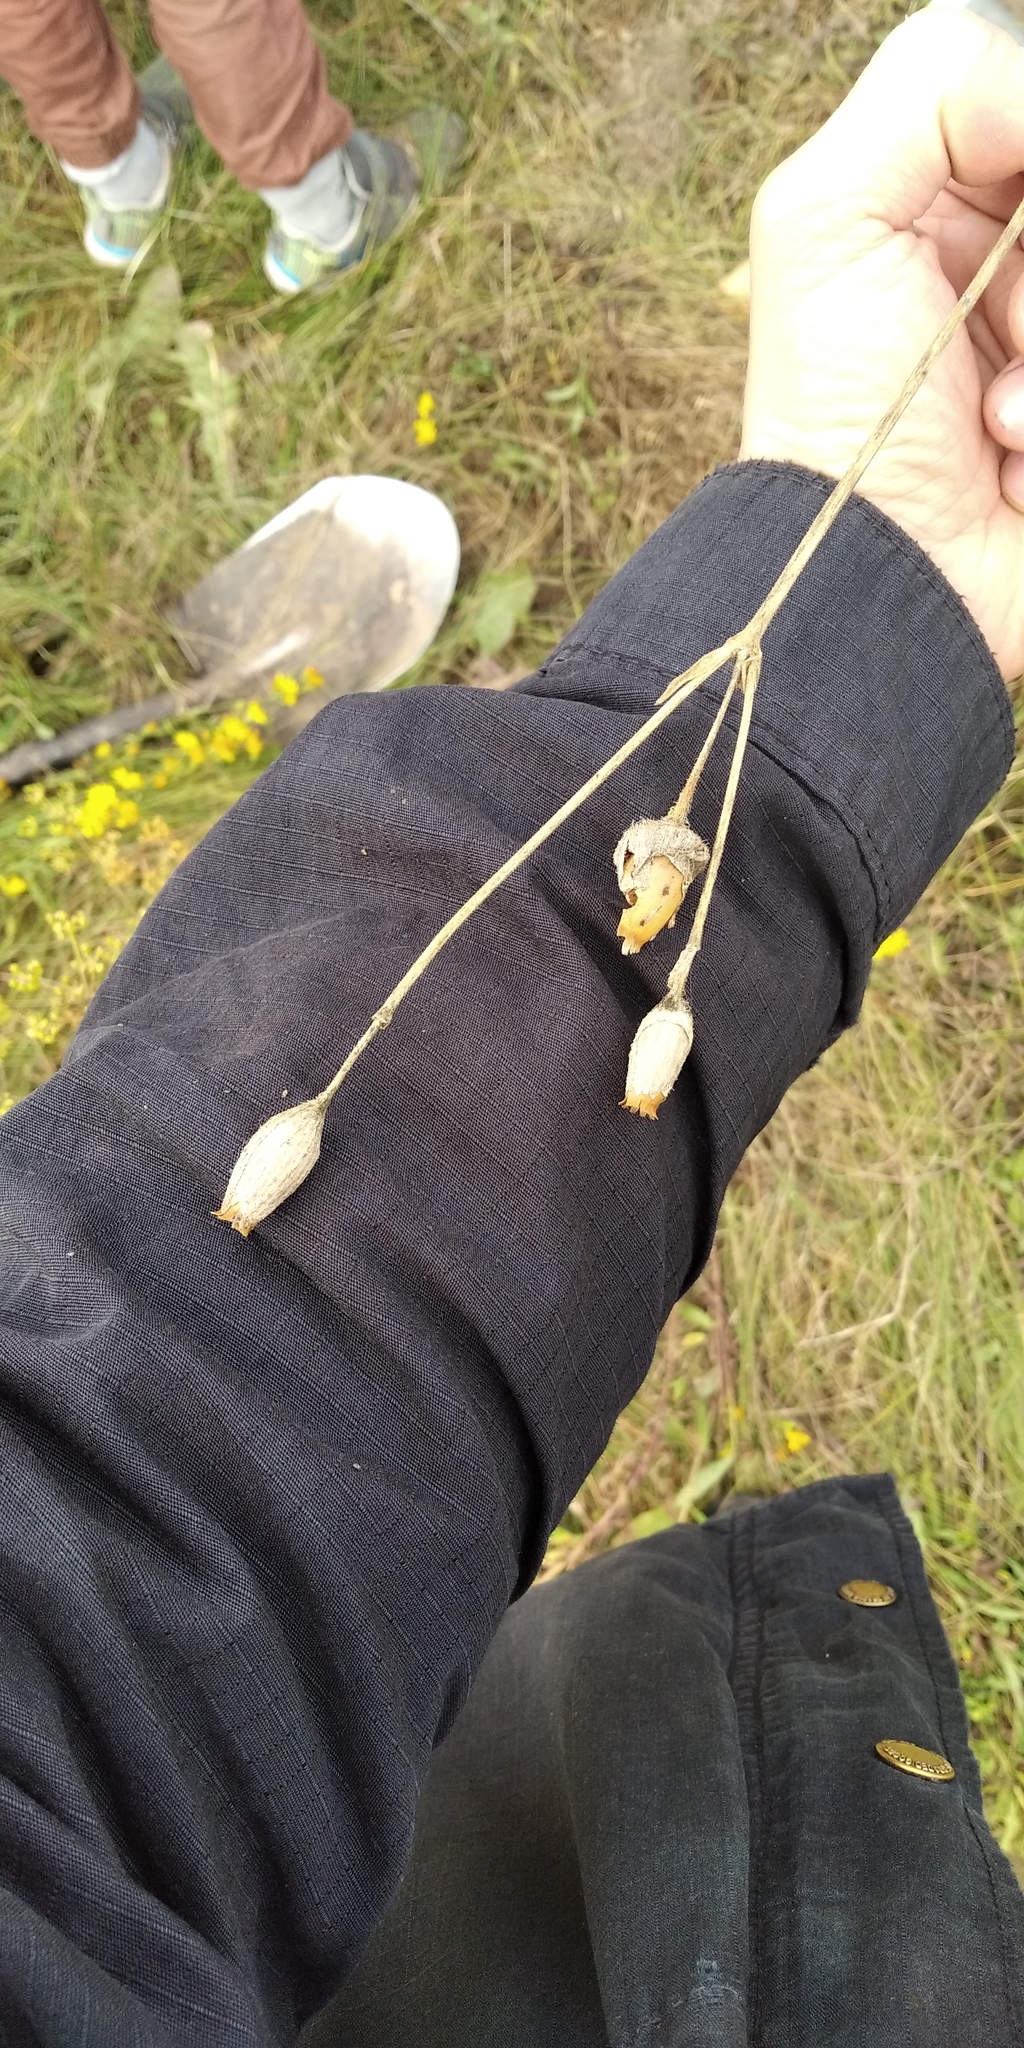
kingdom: Plantae
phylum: Tracheophyta
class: Magnoliopsida
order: Caryophyllales
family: Caryophyllaceae
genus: Viscaria
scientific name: Viscaria vulgaris
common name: Clammy campion
